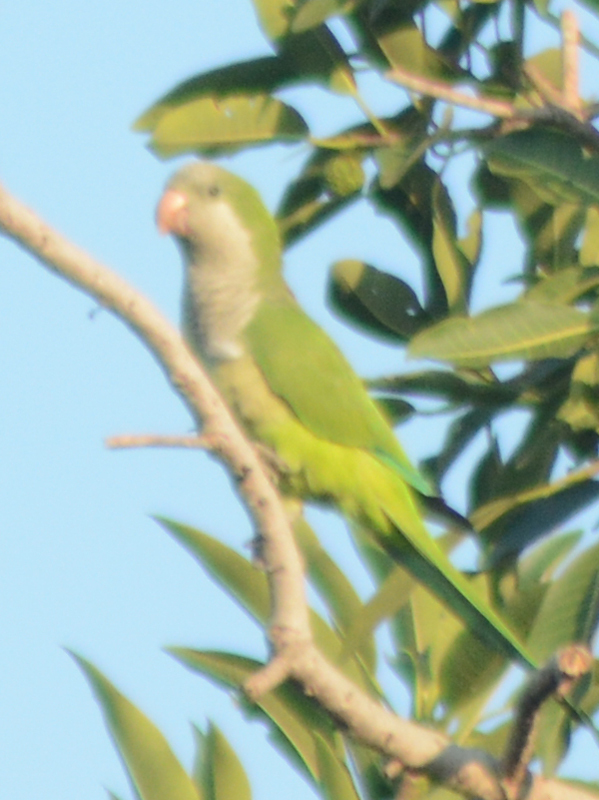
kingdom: Animalia
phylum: Chordata
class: Aves
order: Psittaciformes
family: Psittacidae
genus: Myiopsitta
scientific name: Myiopsitta monachus
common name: Monk parakeet
